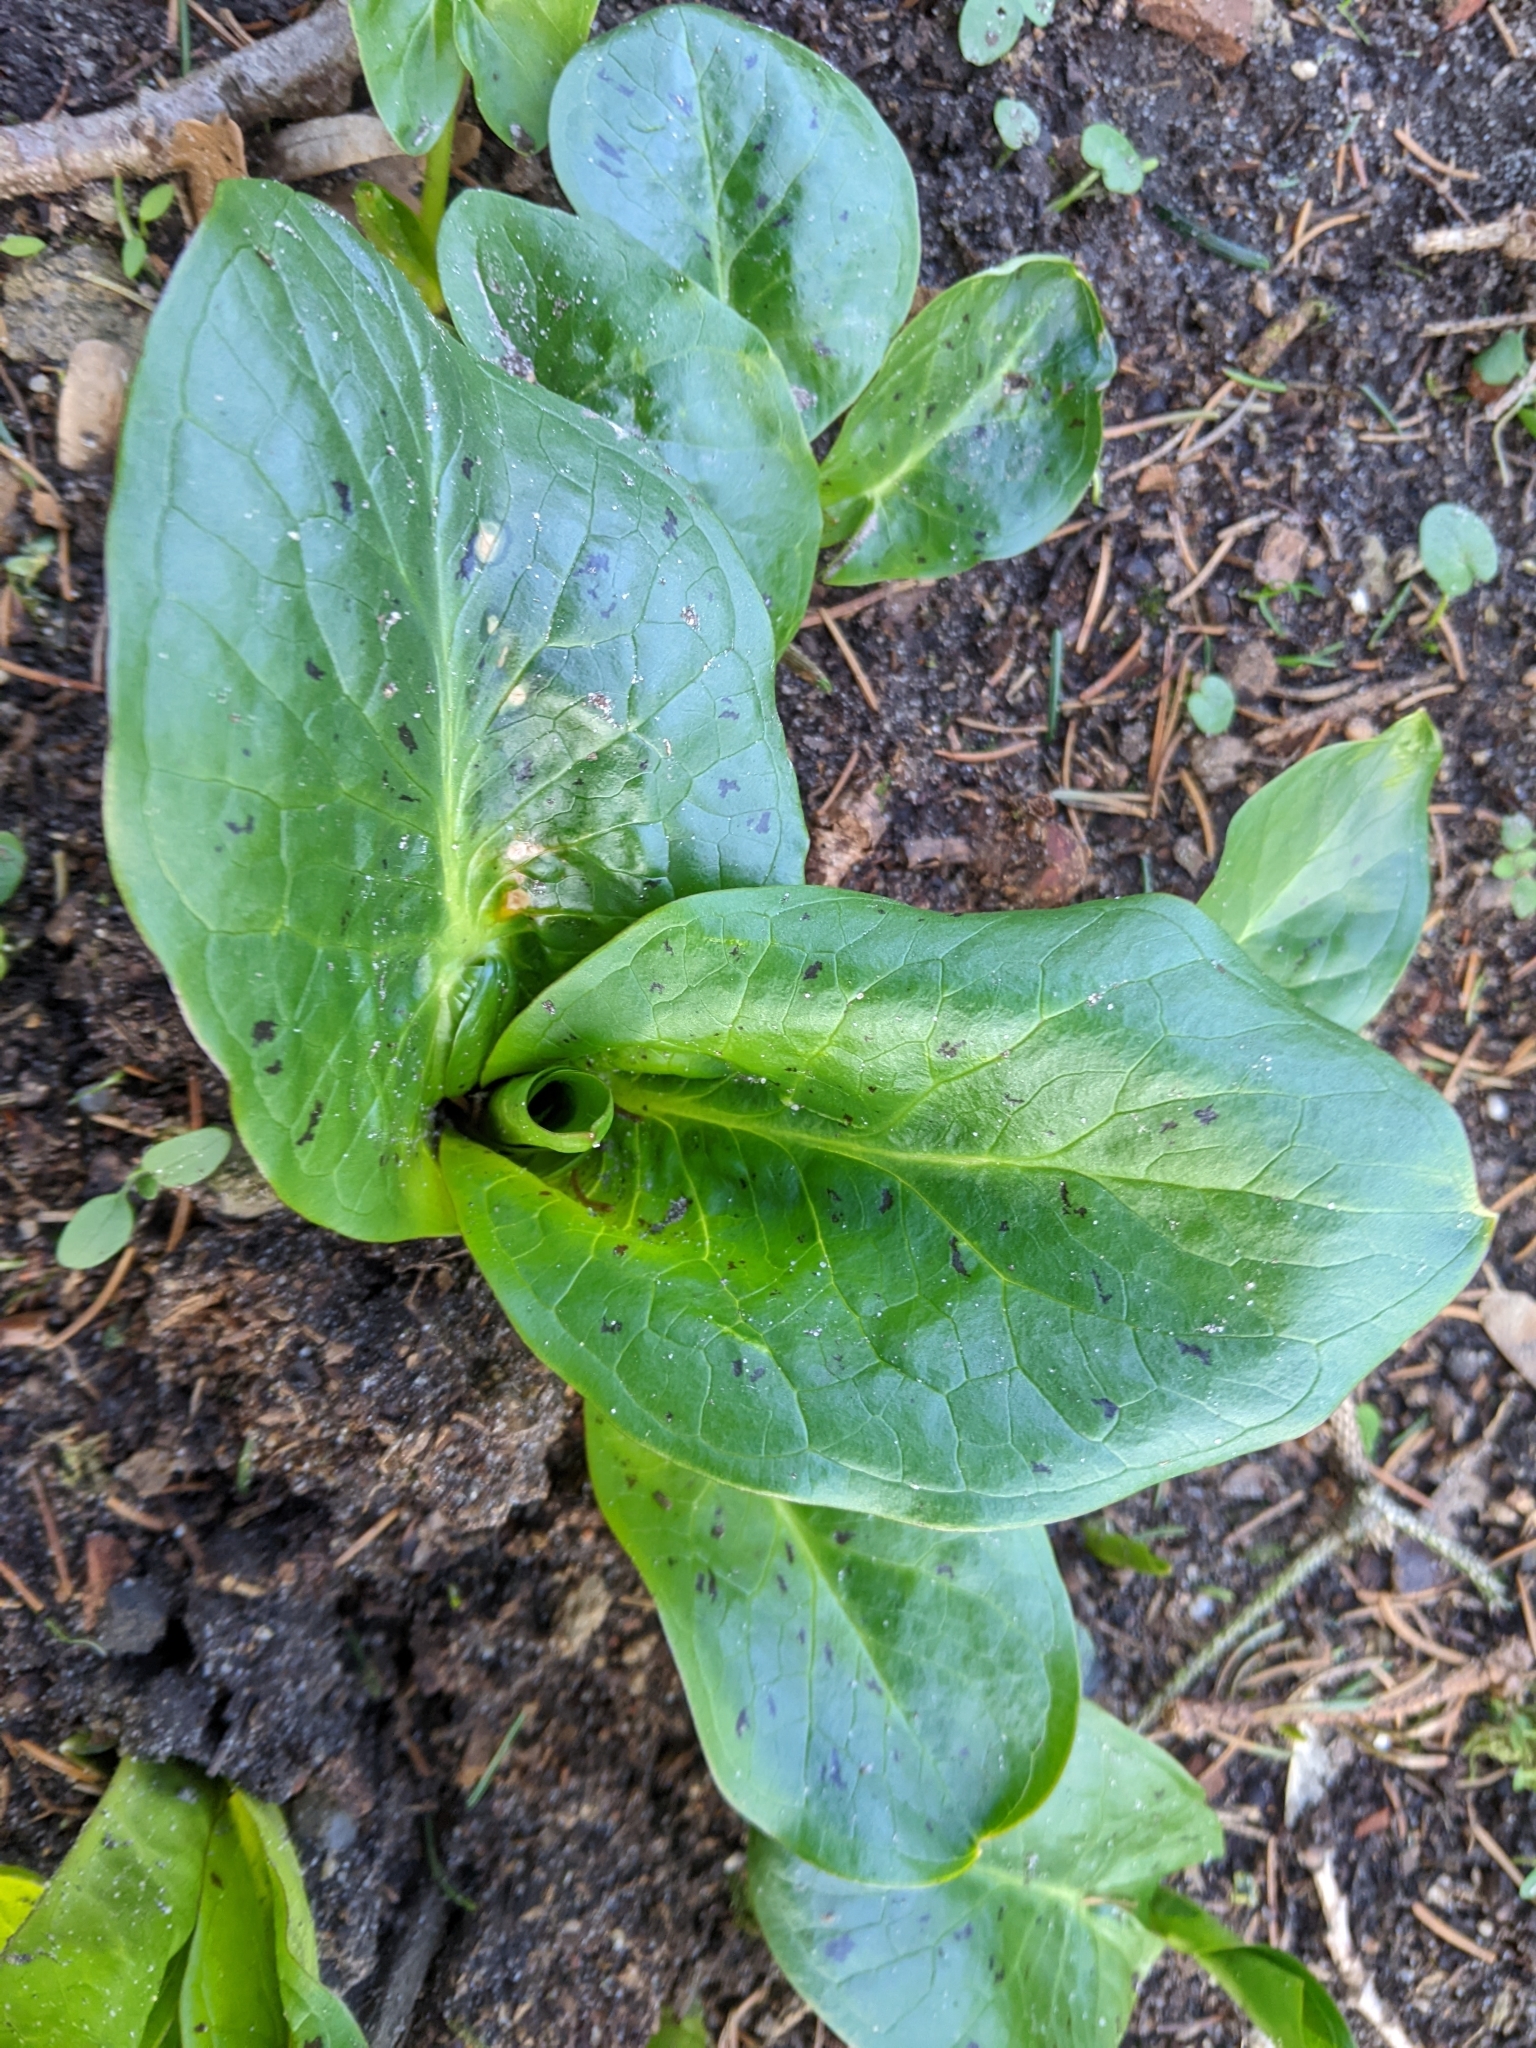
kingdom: Plantae
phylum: Tracheophyta
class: Liliopsida
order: Alismatales
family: Araceae
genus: Arum
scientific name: Arum maculatum
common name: Lords-and-ladies
